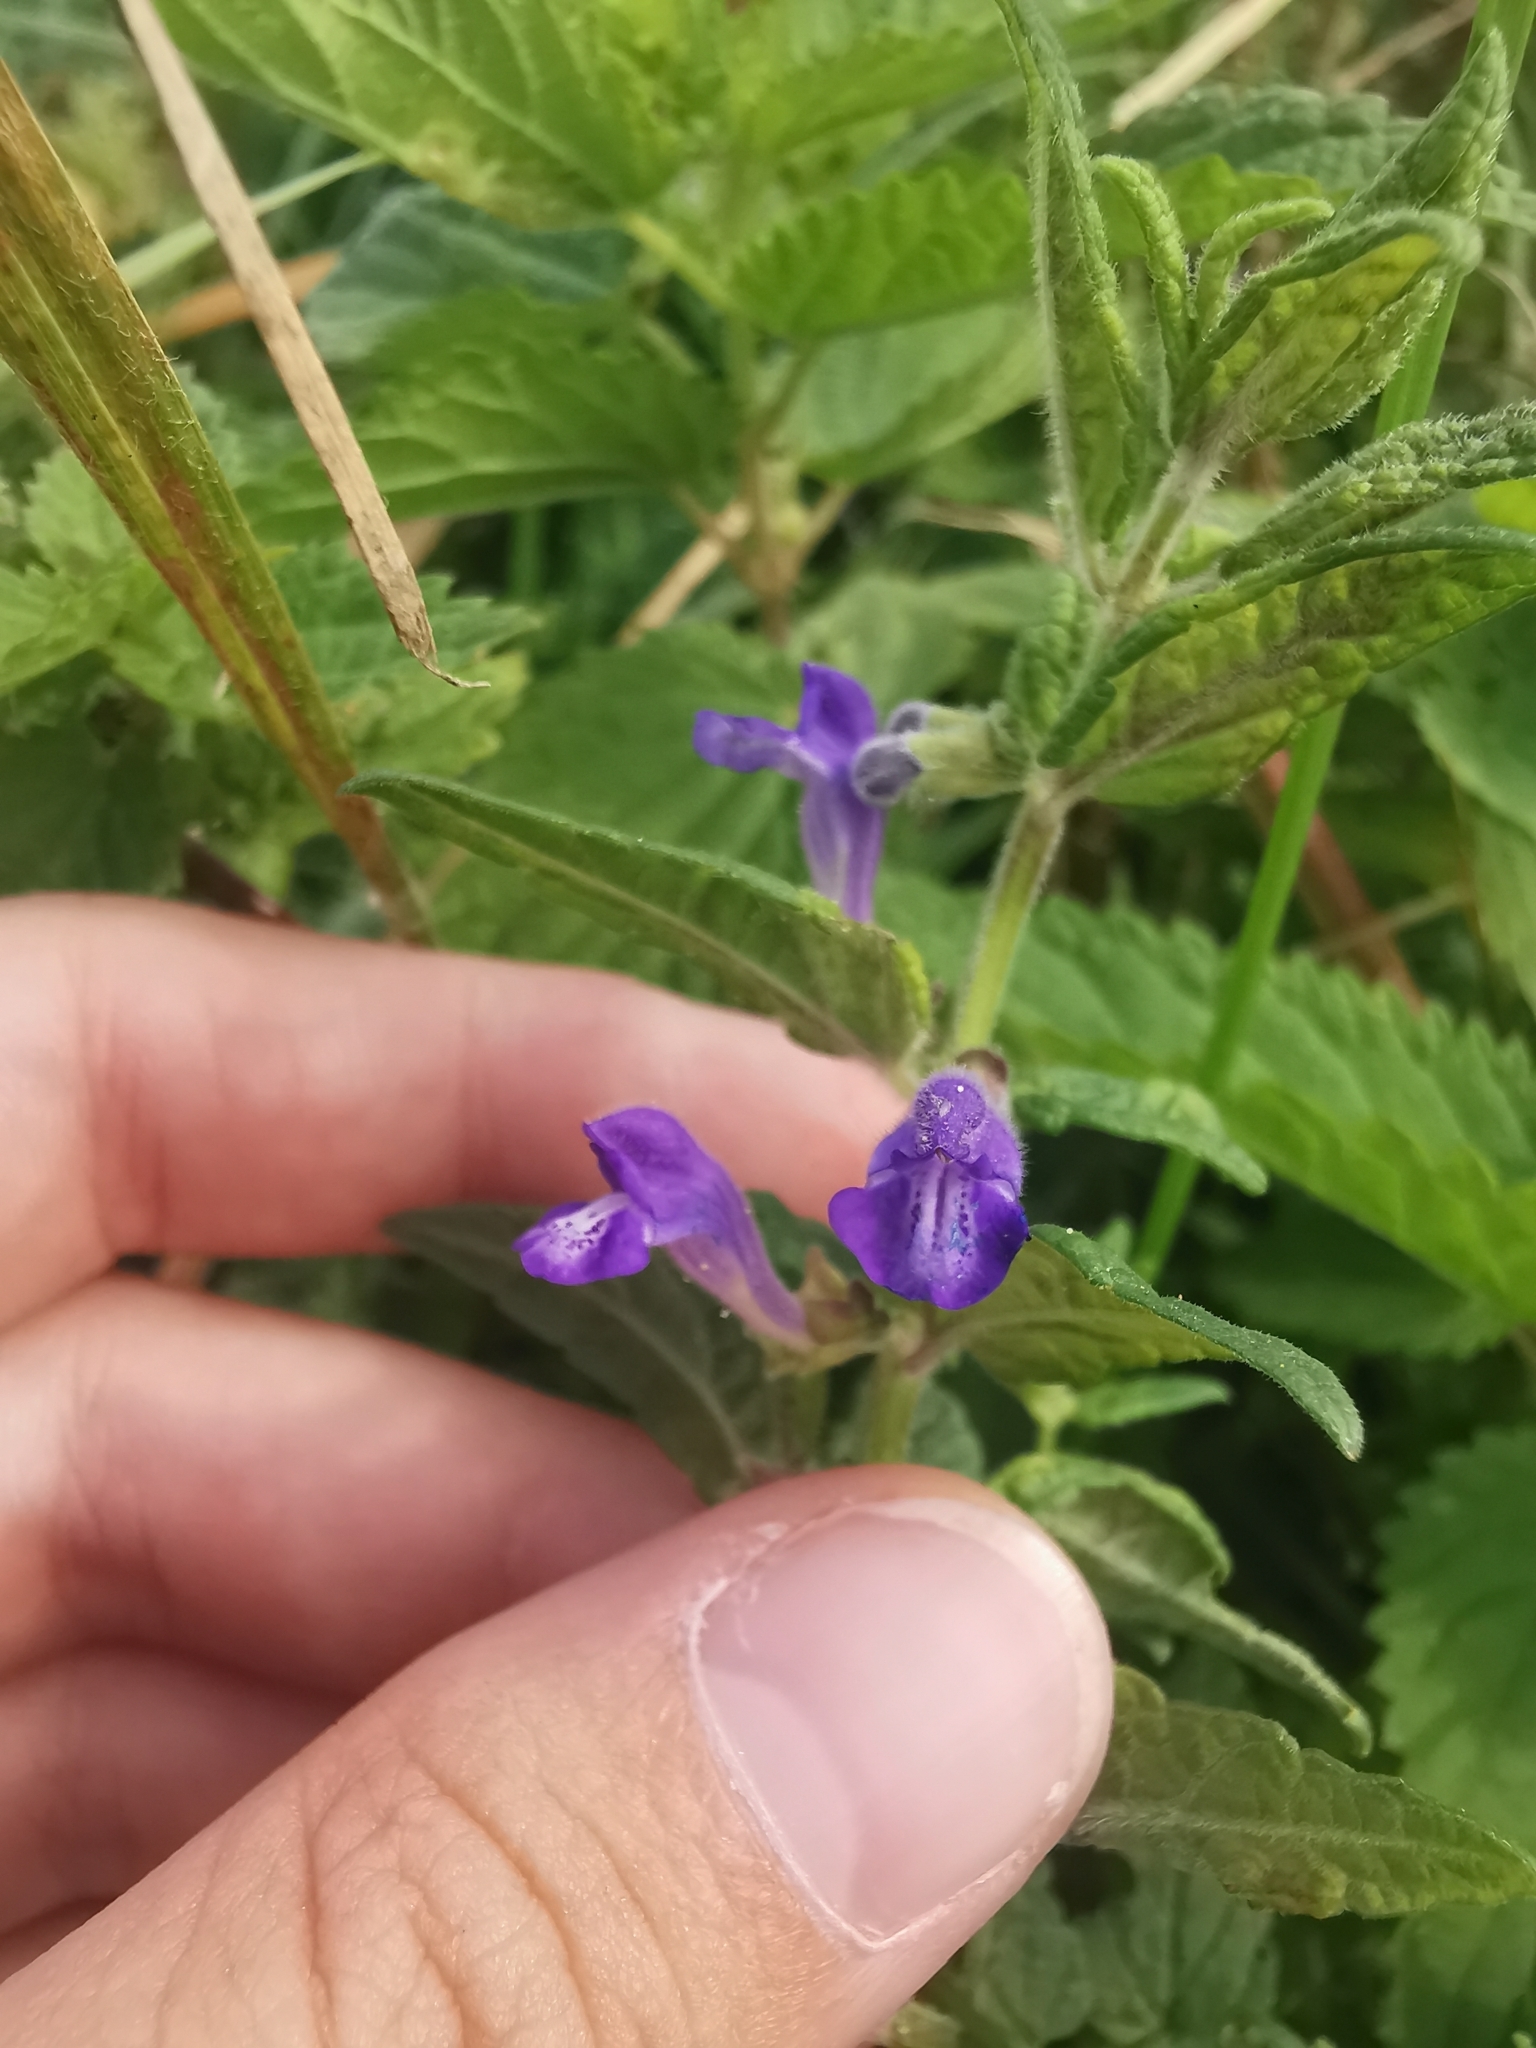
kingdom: Plantae
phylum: Tracheophyta
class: Magnoliopsida
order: Lamiales
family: Lamiaceae
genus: Scutellaria
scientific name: Scutellaria galericulata
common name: Skullcap
